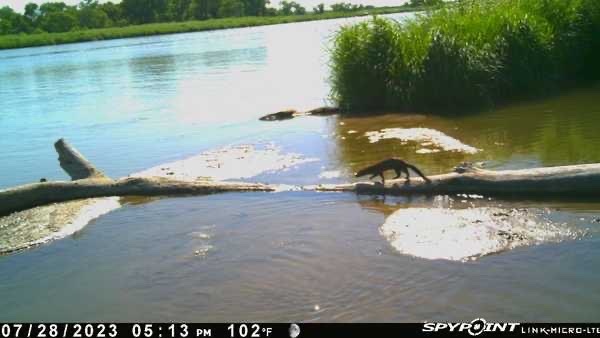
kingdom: Animalia
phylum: Chordata
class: Mammalia
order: Carnivora
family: Mustelidae
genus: Mustela
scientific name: Mustela
